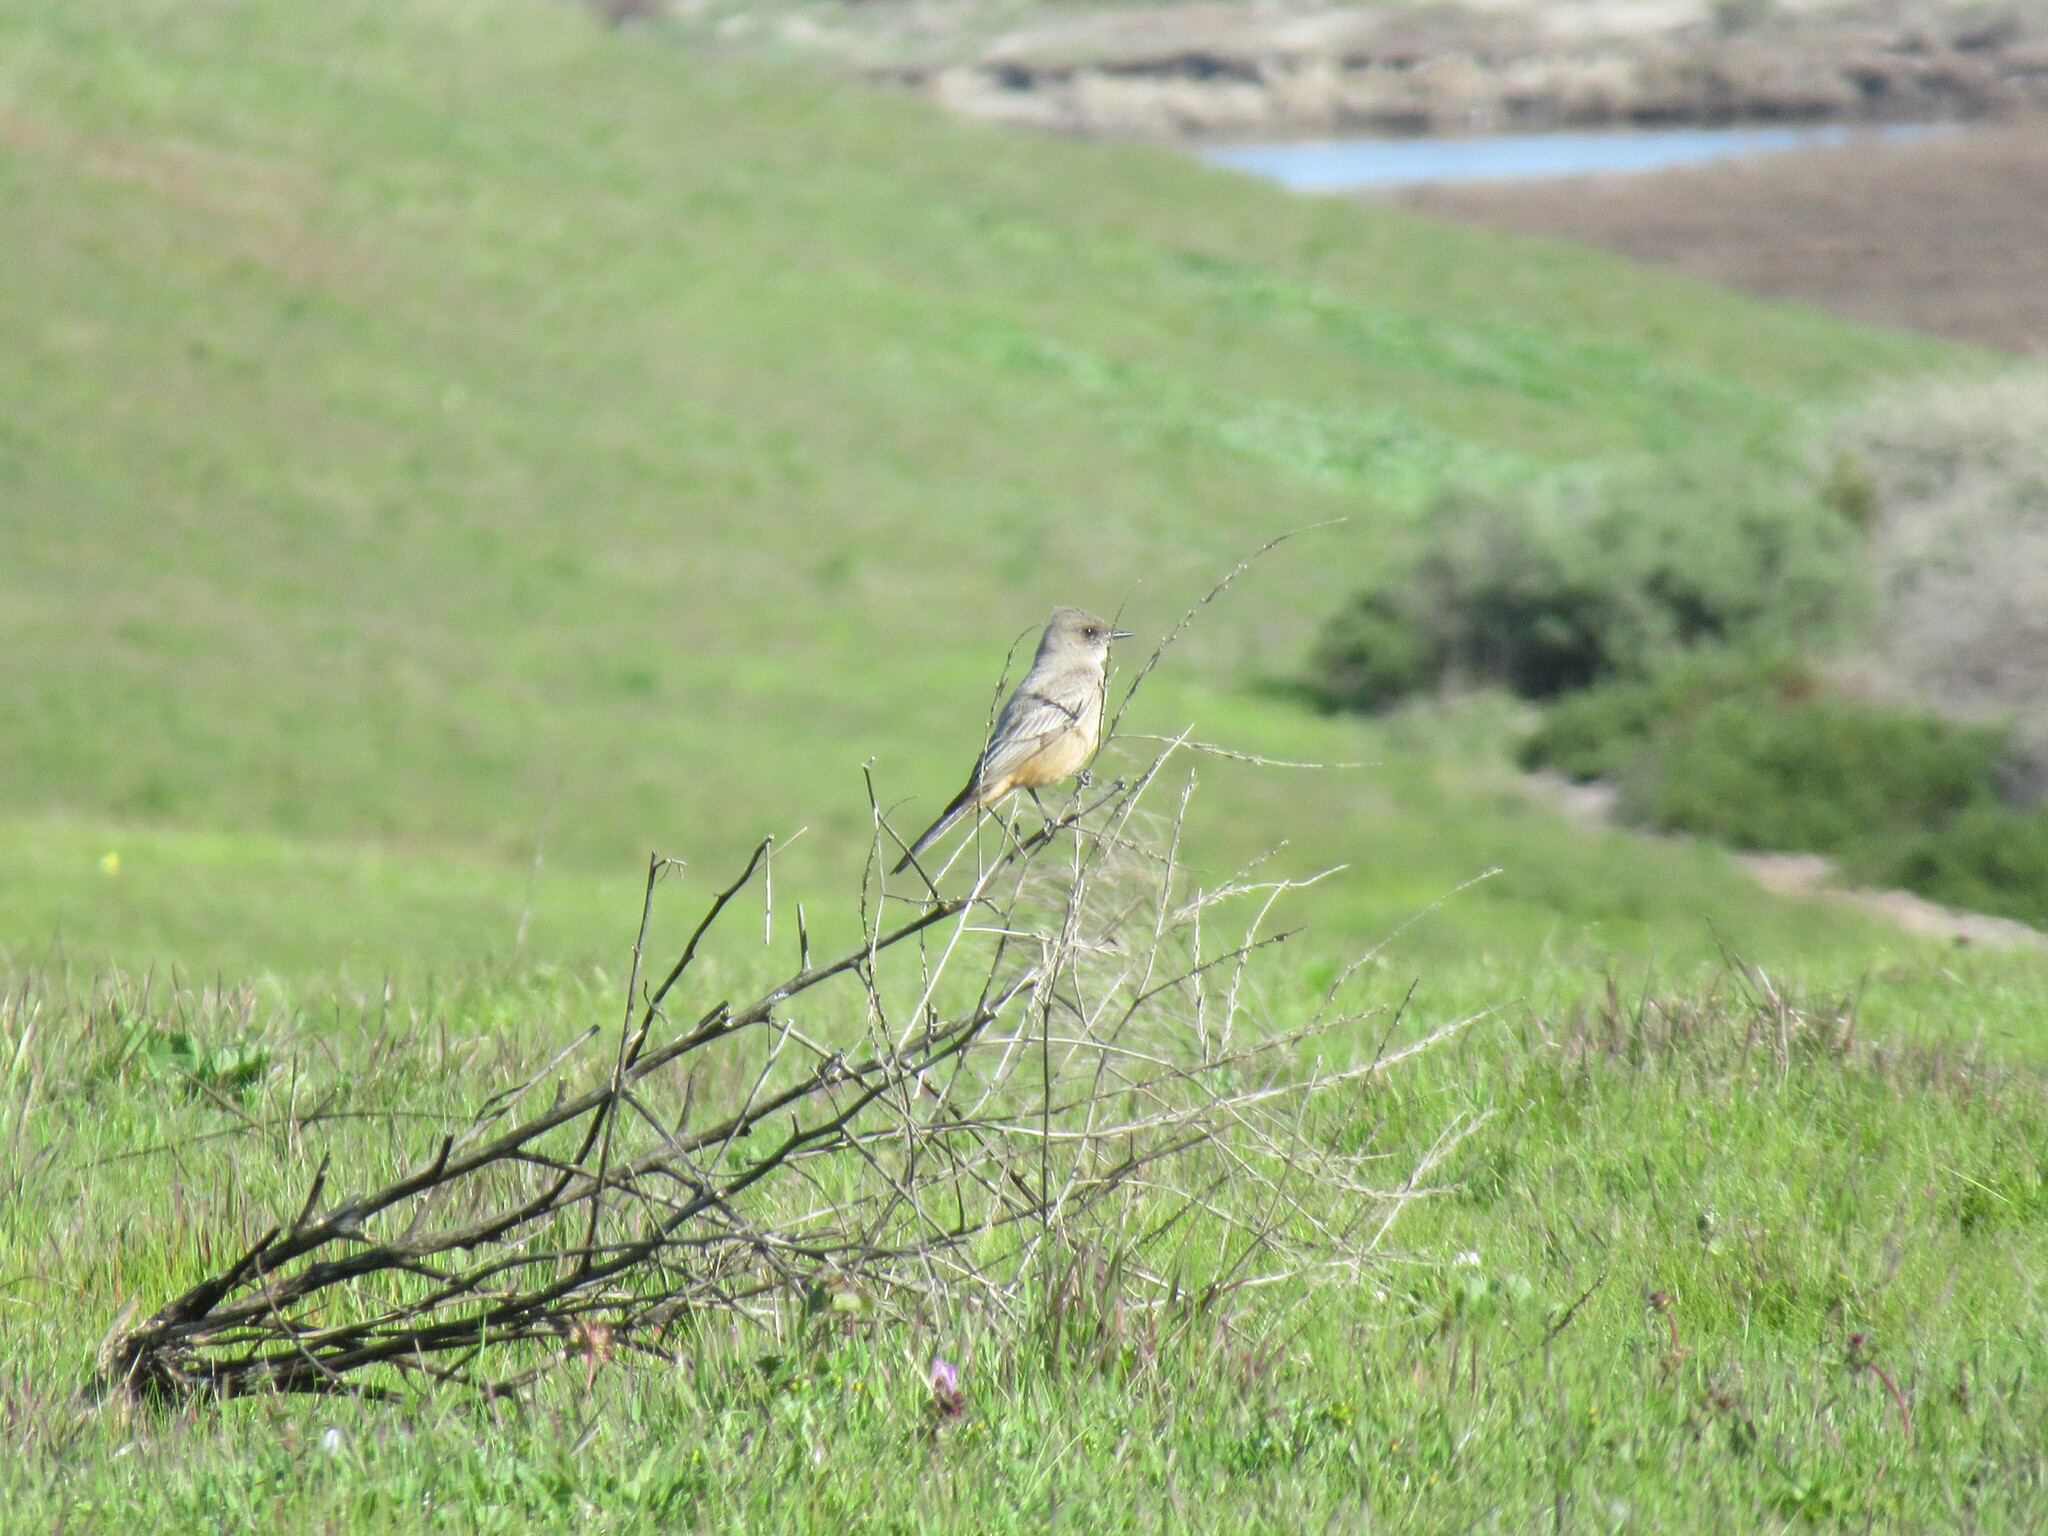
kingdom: Animalia
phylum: Chordata
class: Aves
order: Passeriformes
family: Tyrannidae
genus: Sayornis
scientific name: Sayornis saya
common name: Say's phoebe
